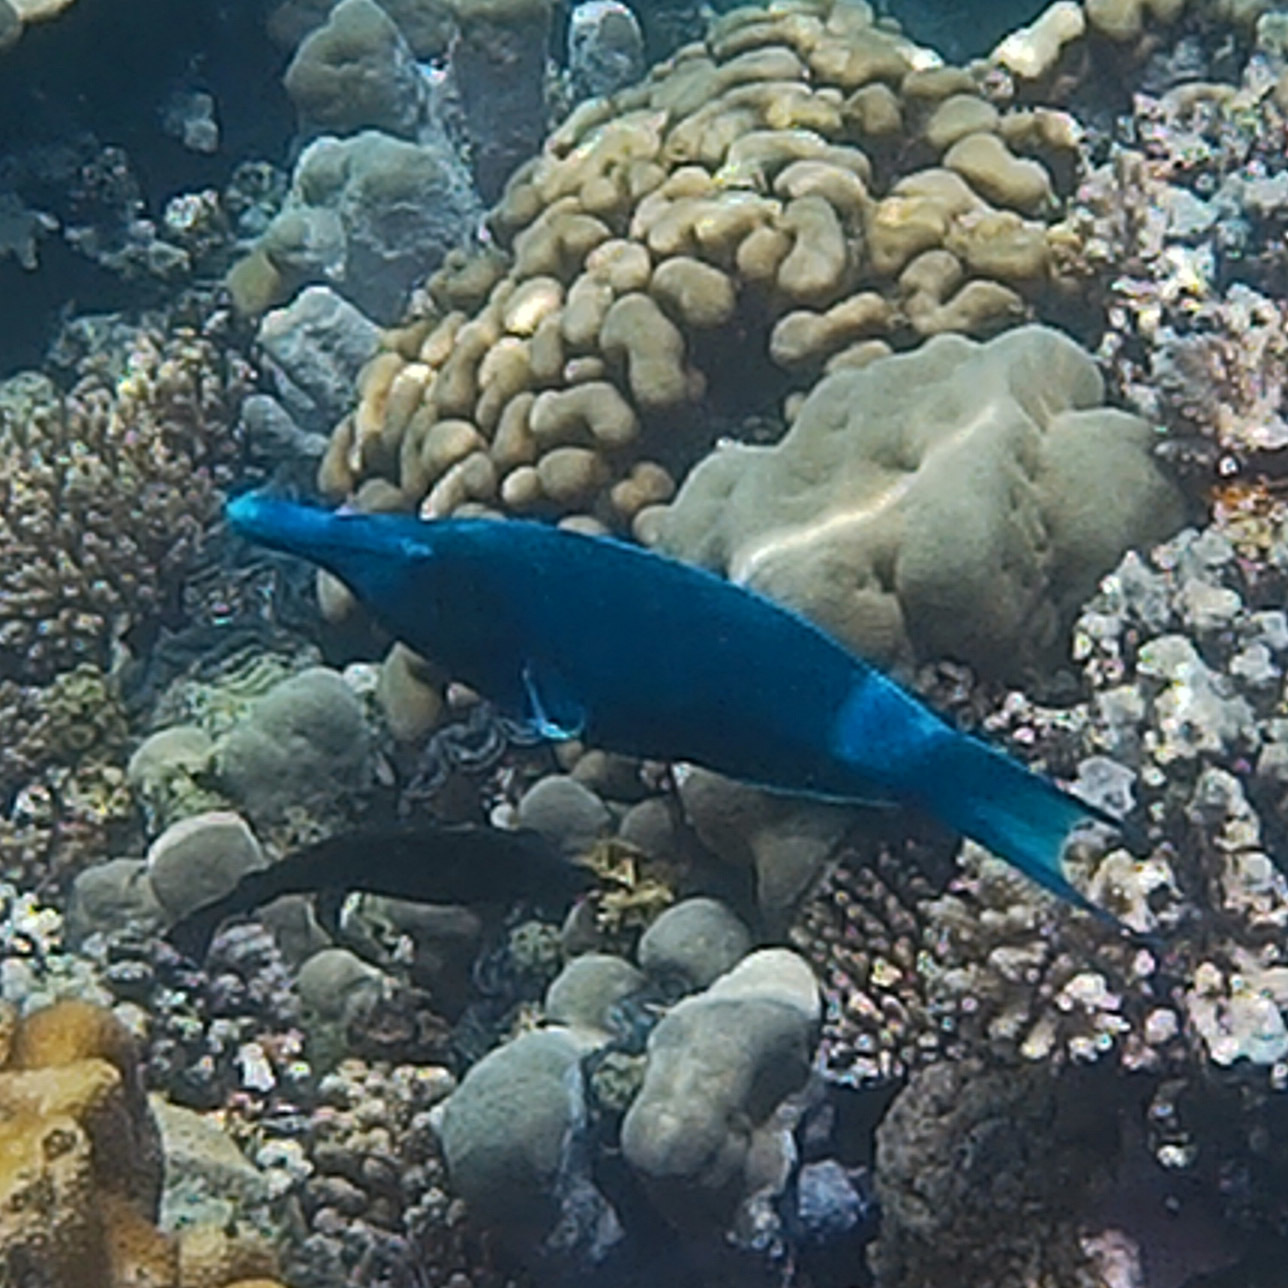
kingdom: Animalia
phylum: Chordata
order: Perciformes
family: Labridae
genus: Gomphosus
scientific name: Gomphosus klunzingeri
